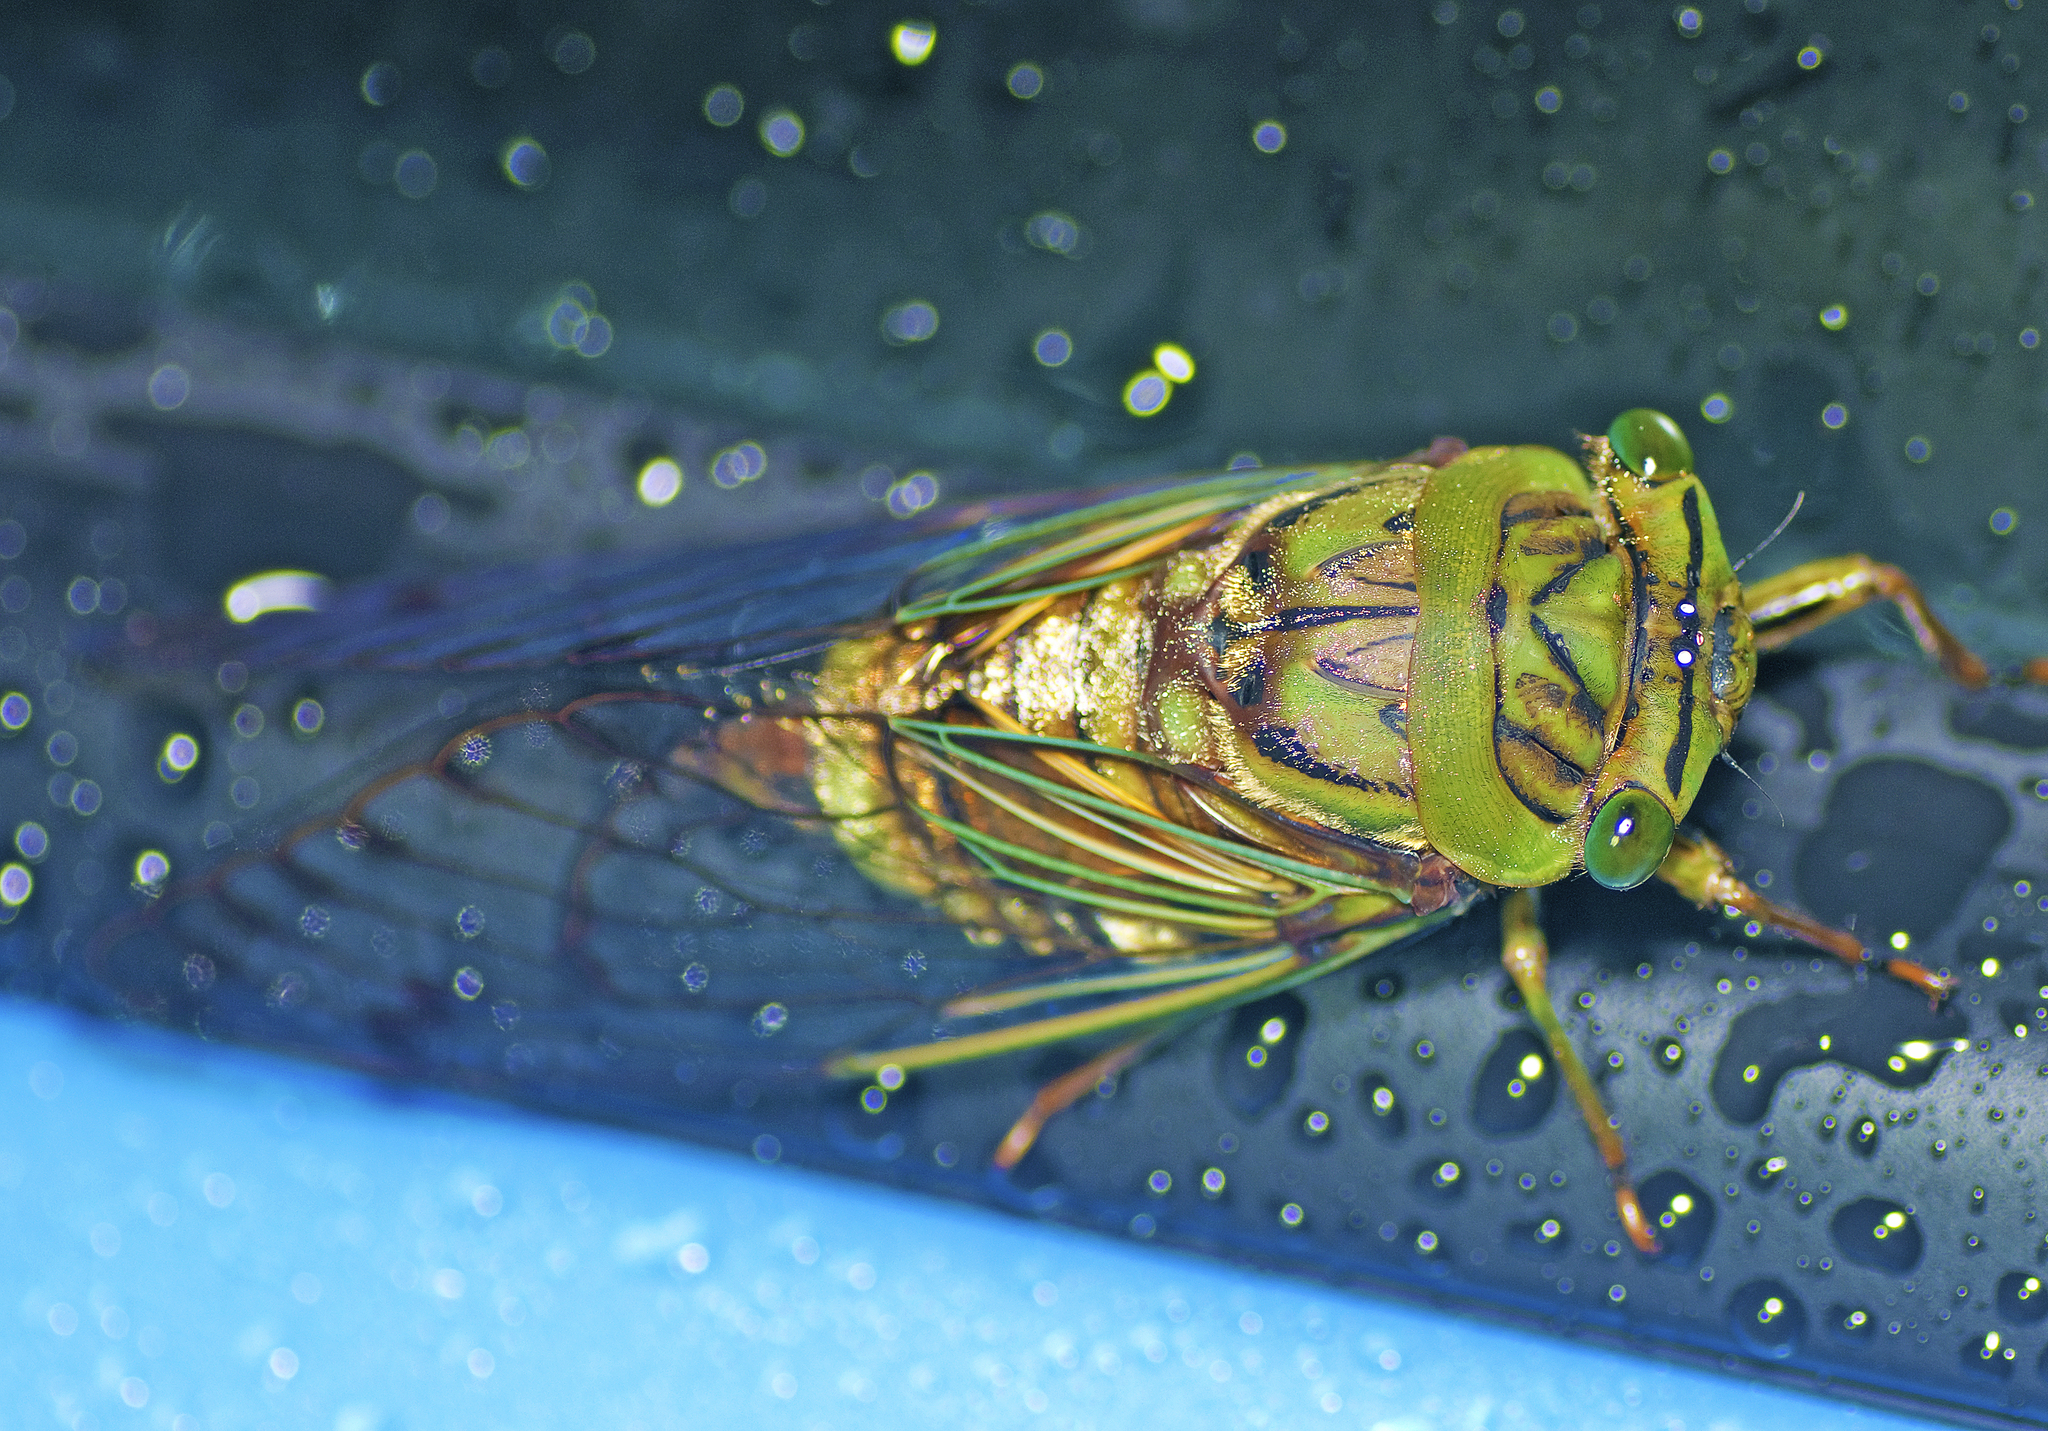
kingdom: Animalia
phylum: Arthropoda
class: Insecta
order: Hemiptera
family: Cicadidae
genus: Anapsaltoda
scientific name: Anapsaltoda pulchra
